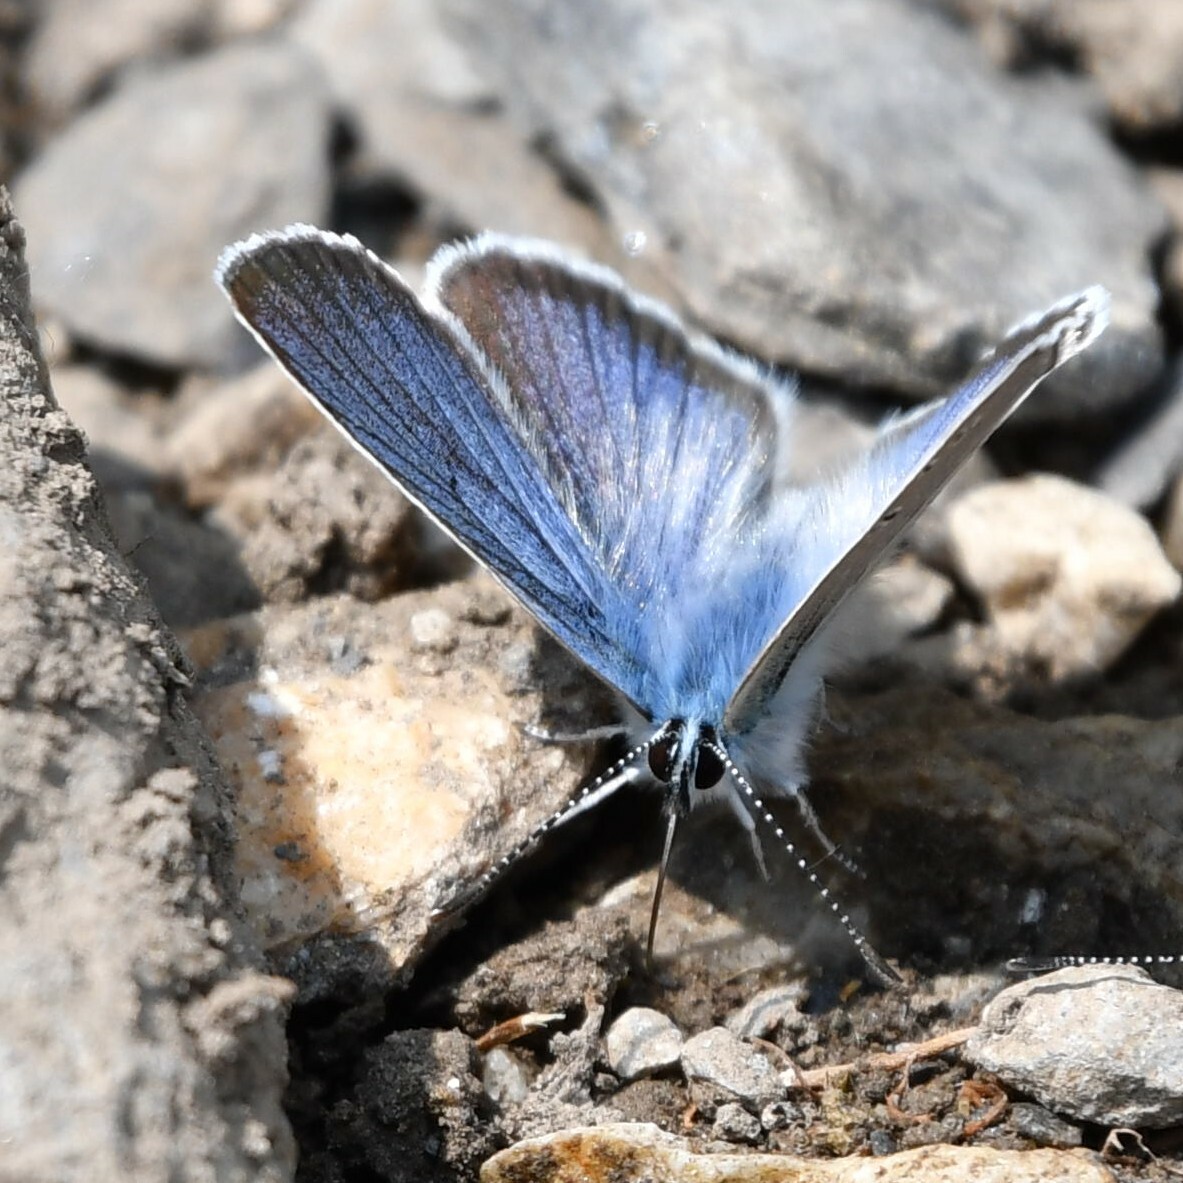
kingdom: Animalia
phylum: Arthropoda
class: Insecta
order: Lepidoptera
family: Lycaenidae
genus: Cyaniris
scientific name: Cyaniris semiargus
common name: Mazarine blue
